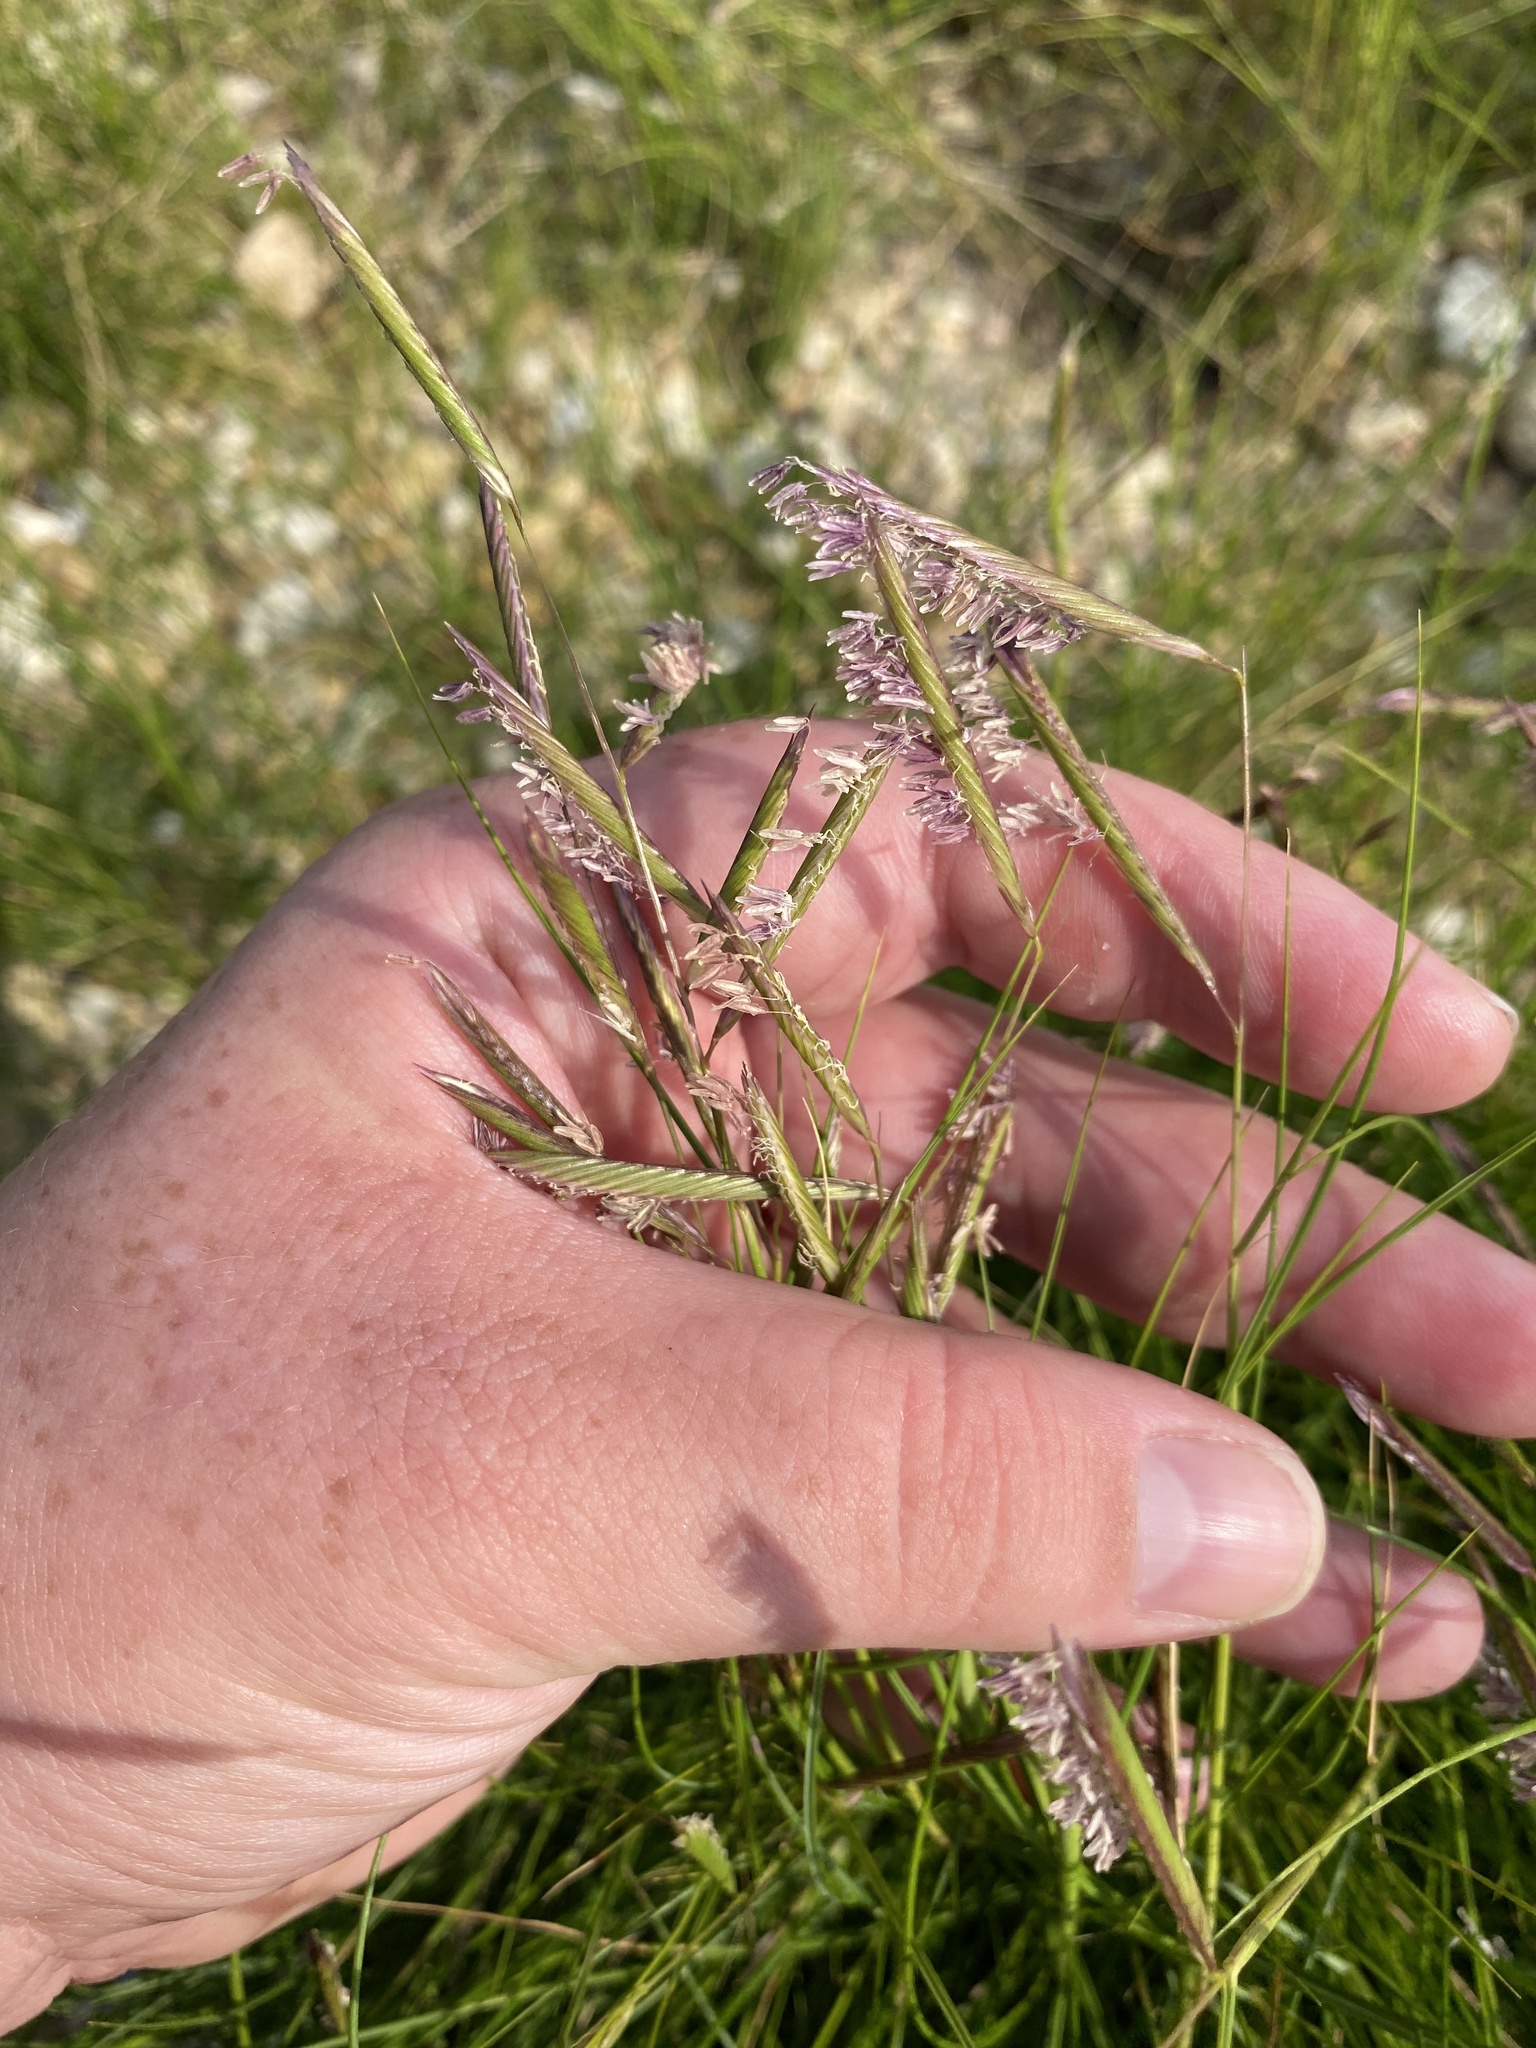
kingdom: Plantae
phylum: Tracheophyta
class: Liliopsida
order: Poales
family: Poaceae
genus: Sporobolus
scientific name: Sporobolus pumilus
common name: Highwater grass
